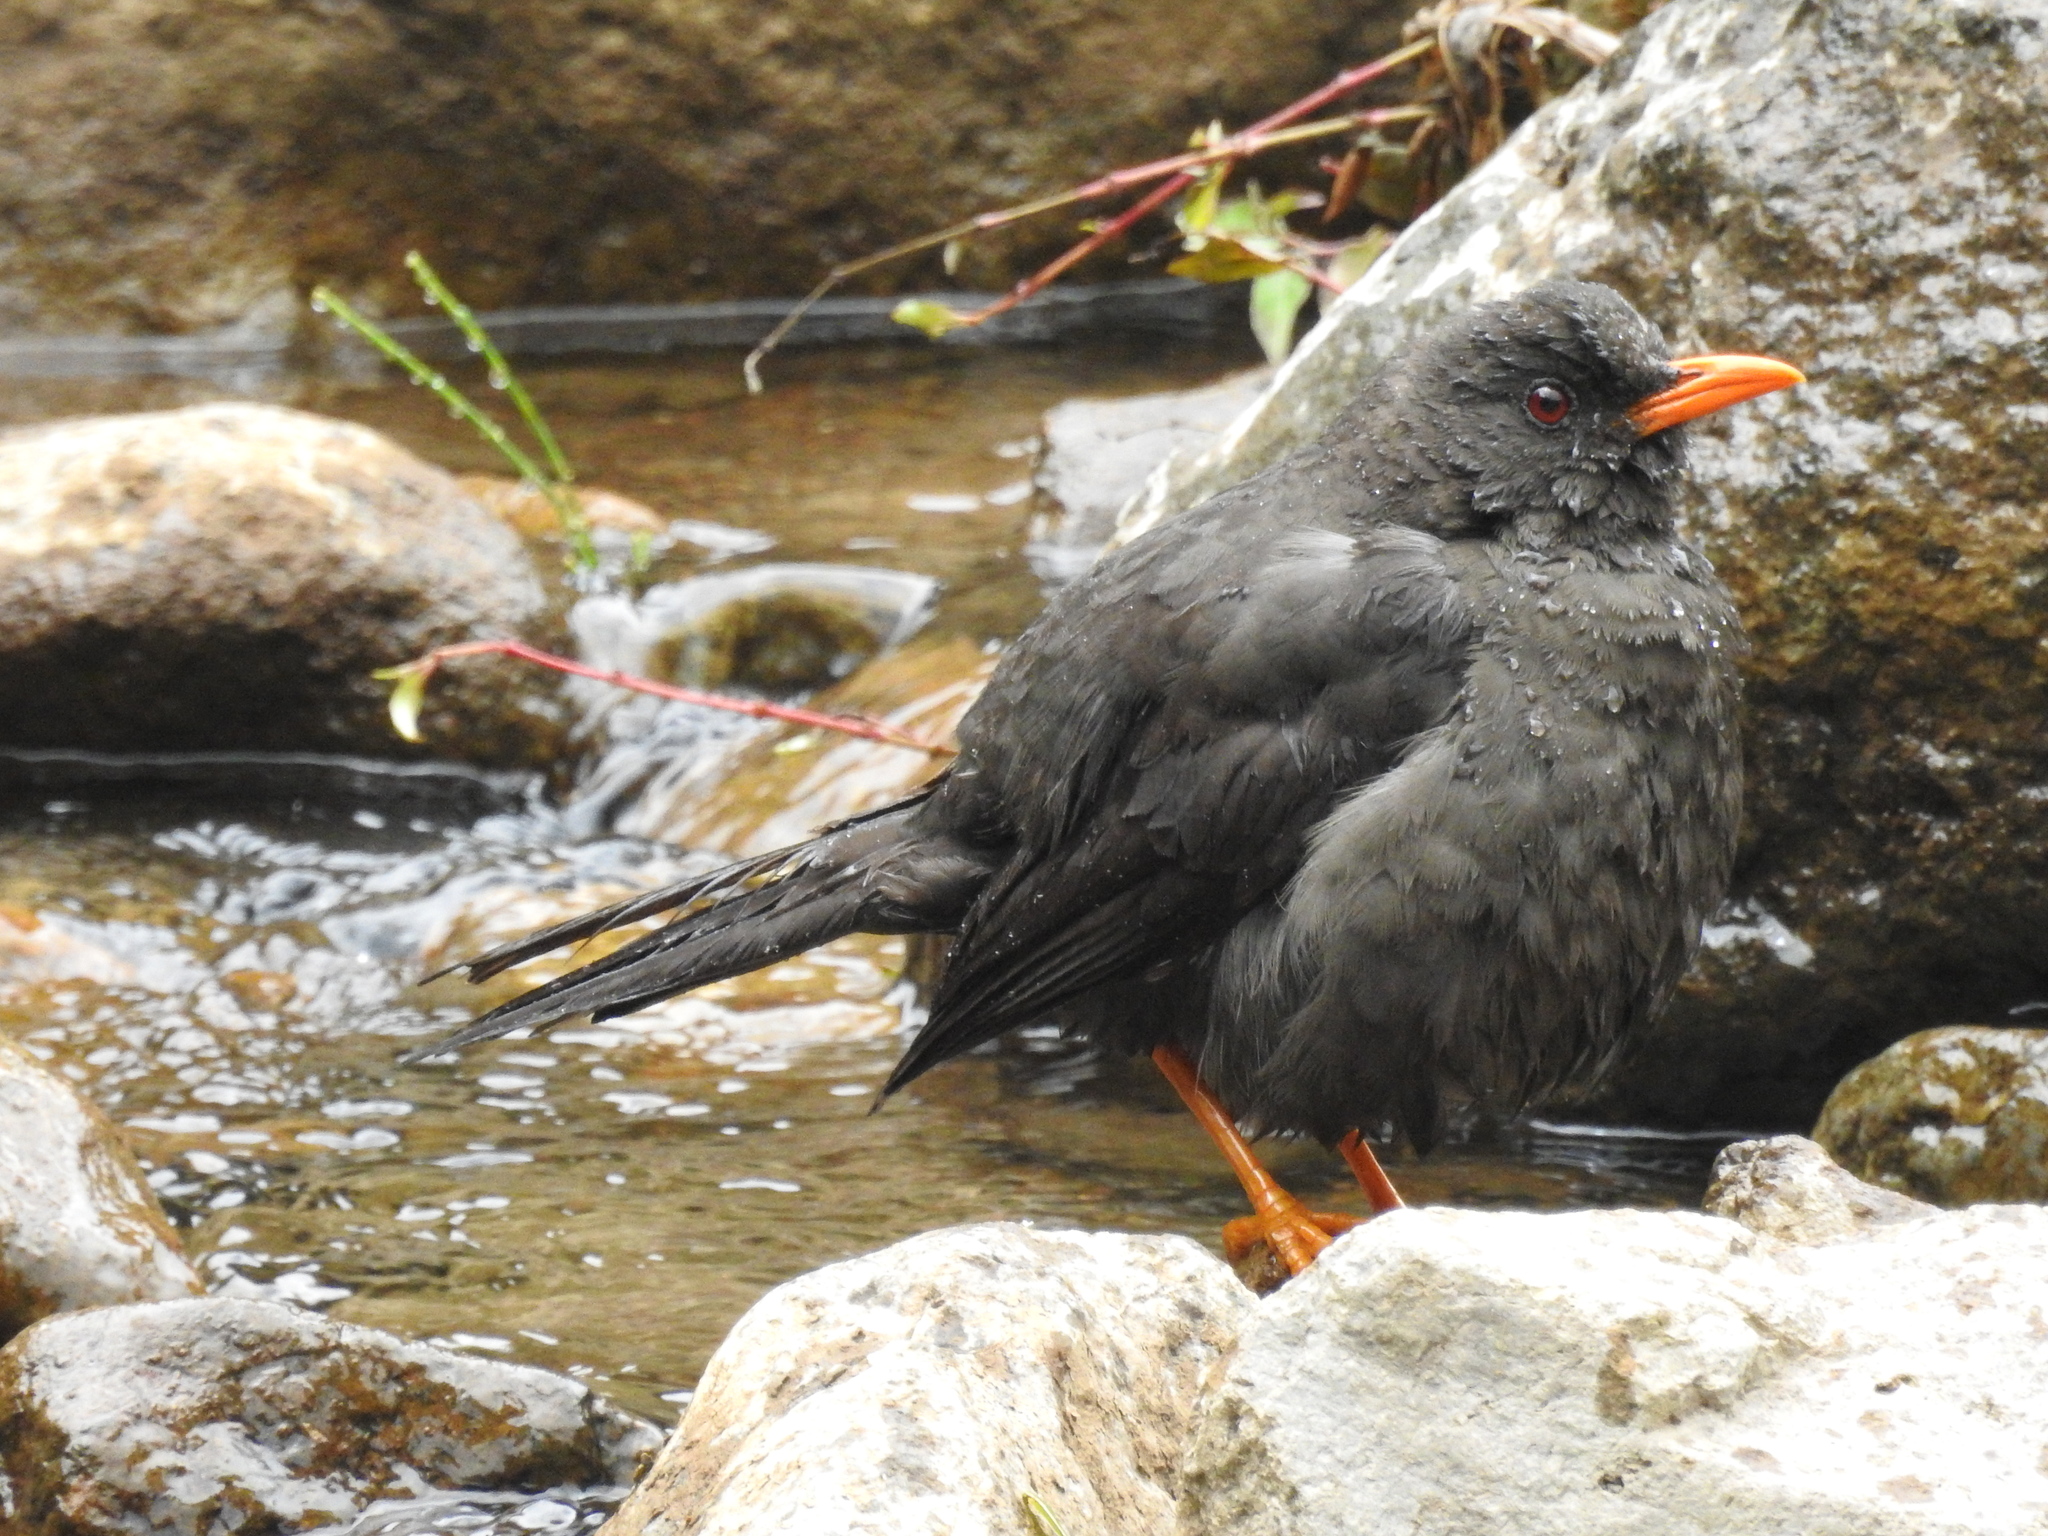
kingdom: Animalia
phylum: Chordata
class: Aves
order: Passeriformes
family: Turdidae
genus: Turdus
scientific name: Turdus fuscater
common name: Great thrush
